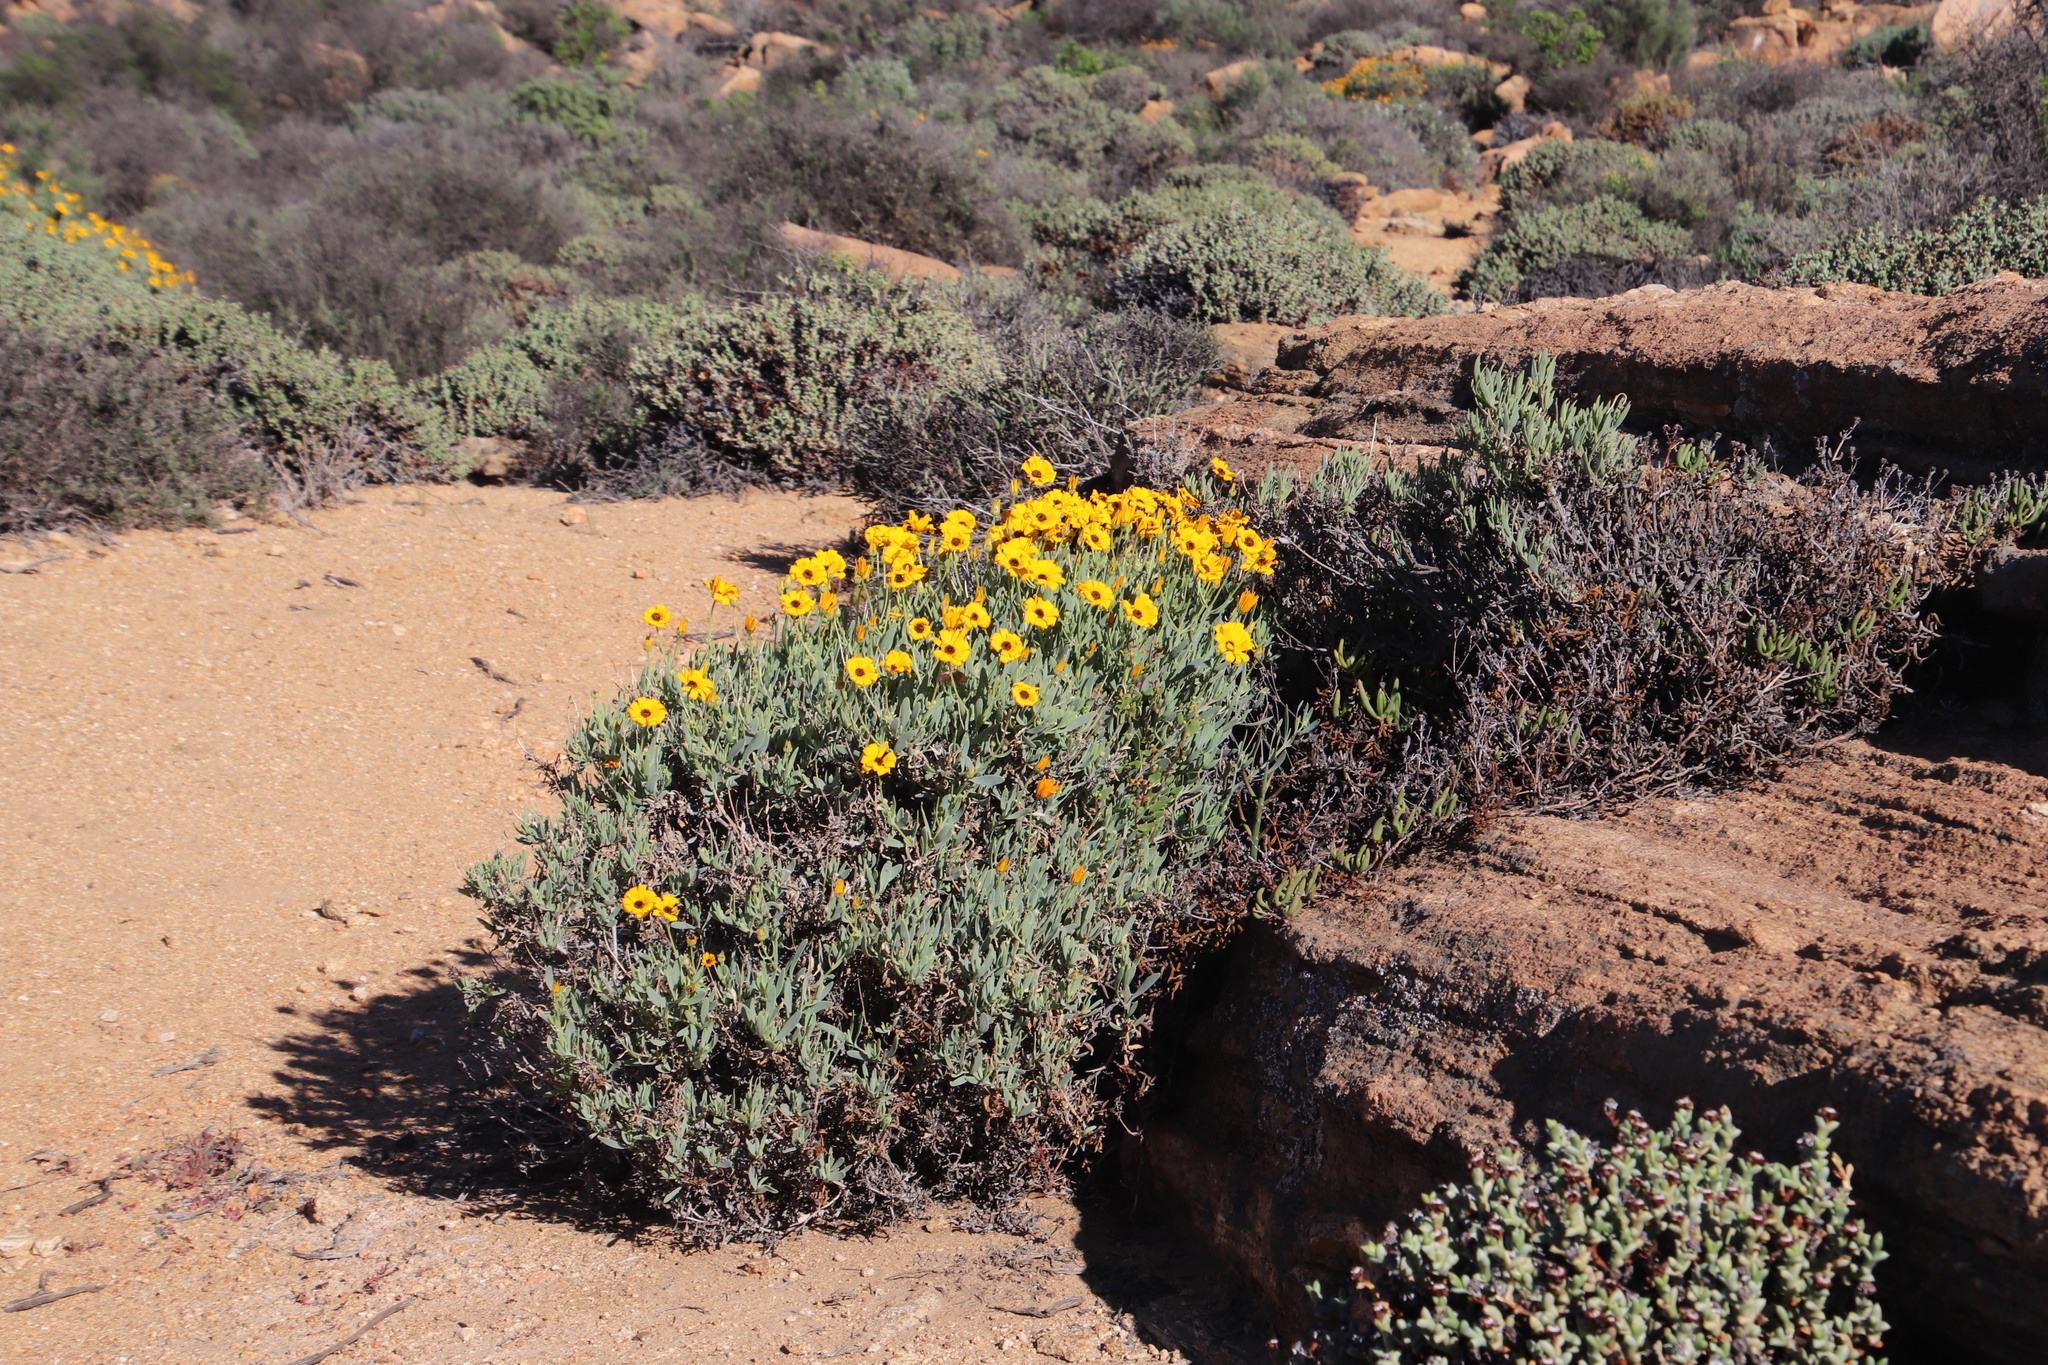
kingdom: Plantae
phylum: Tracheophyta
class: Magnoliopsida
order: Asterales
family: Asteraceae
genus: Osteospermum
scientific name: Osteospermum oppositifolium
